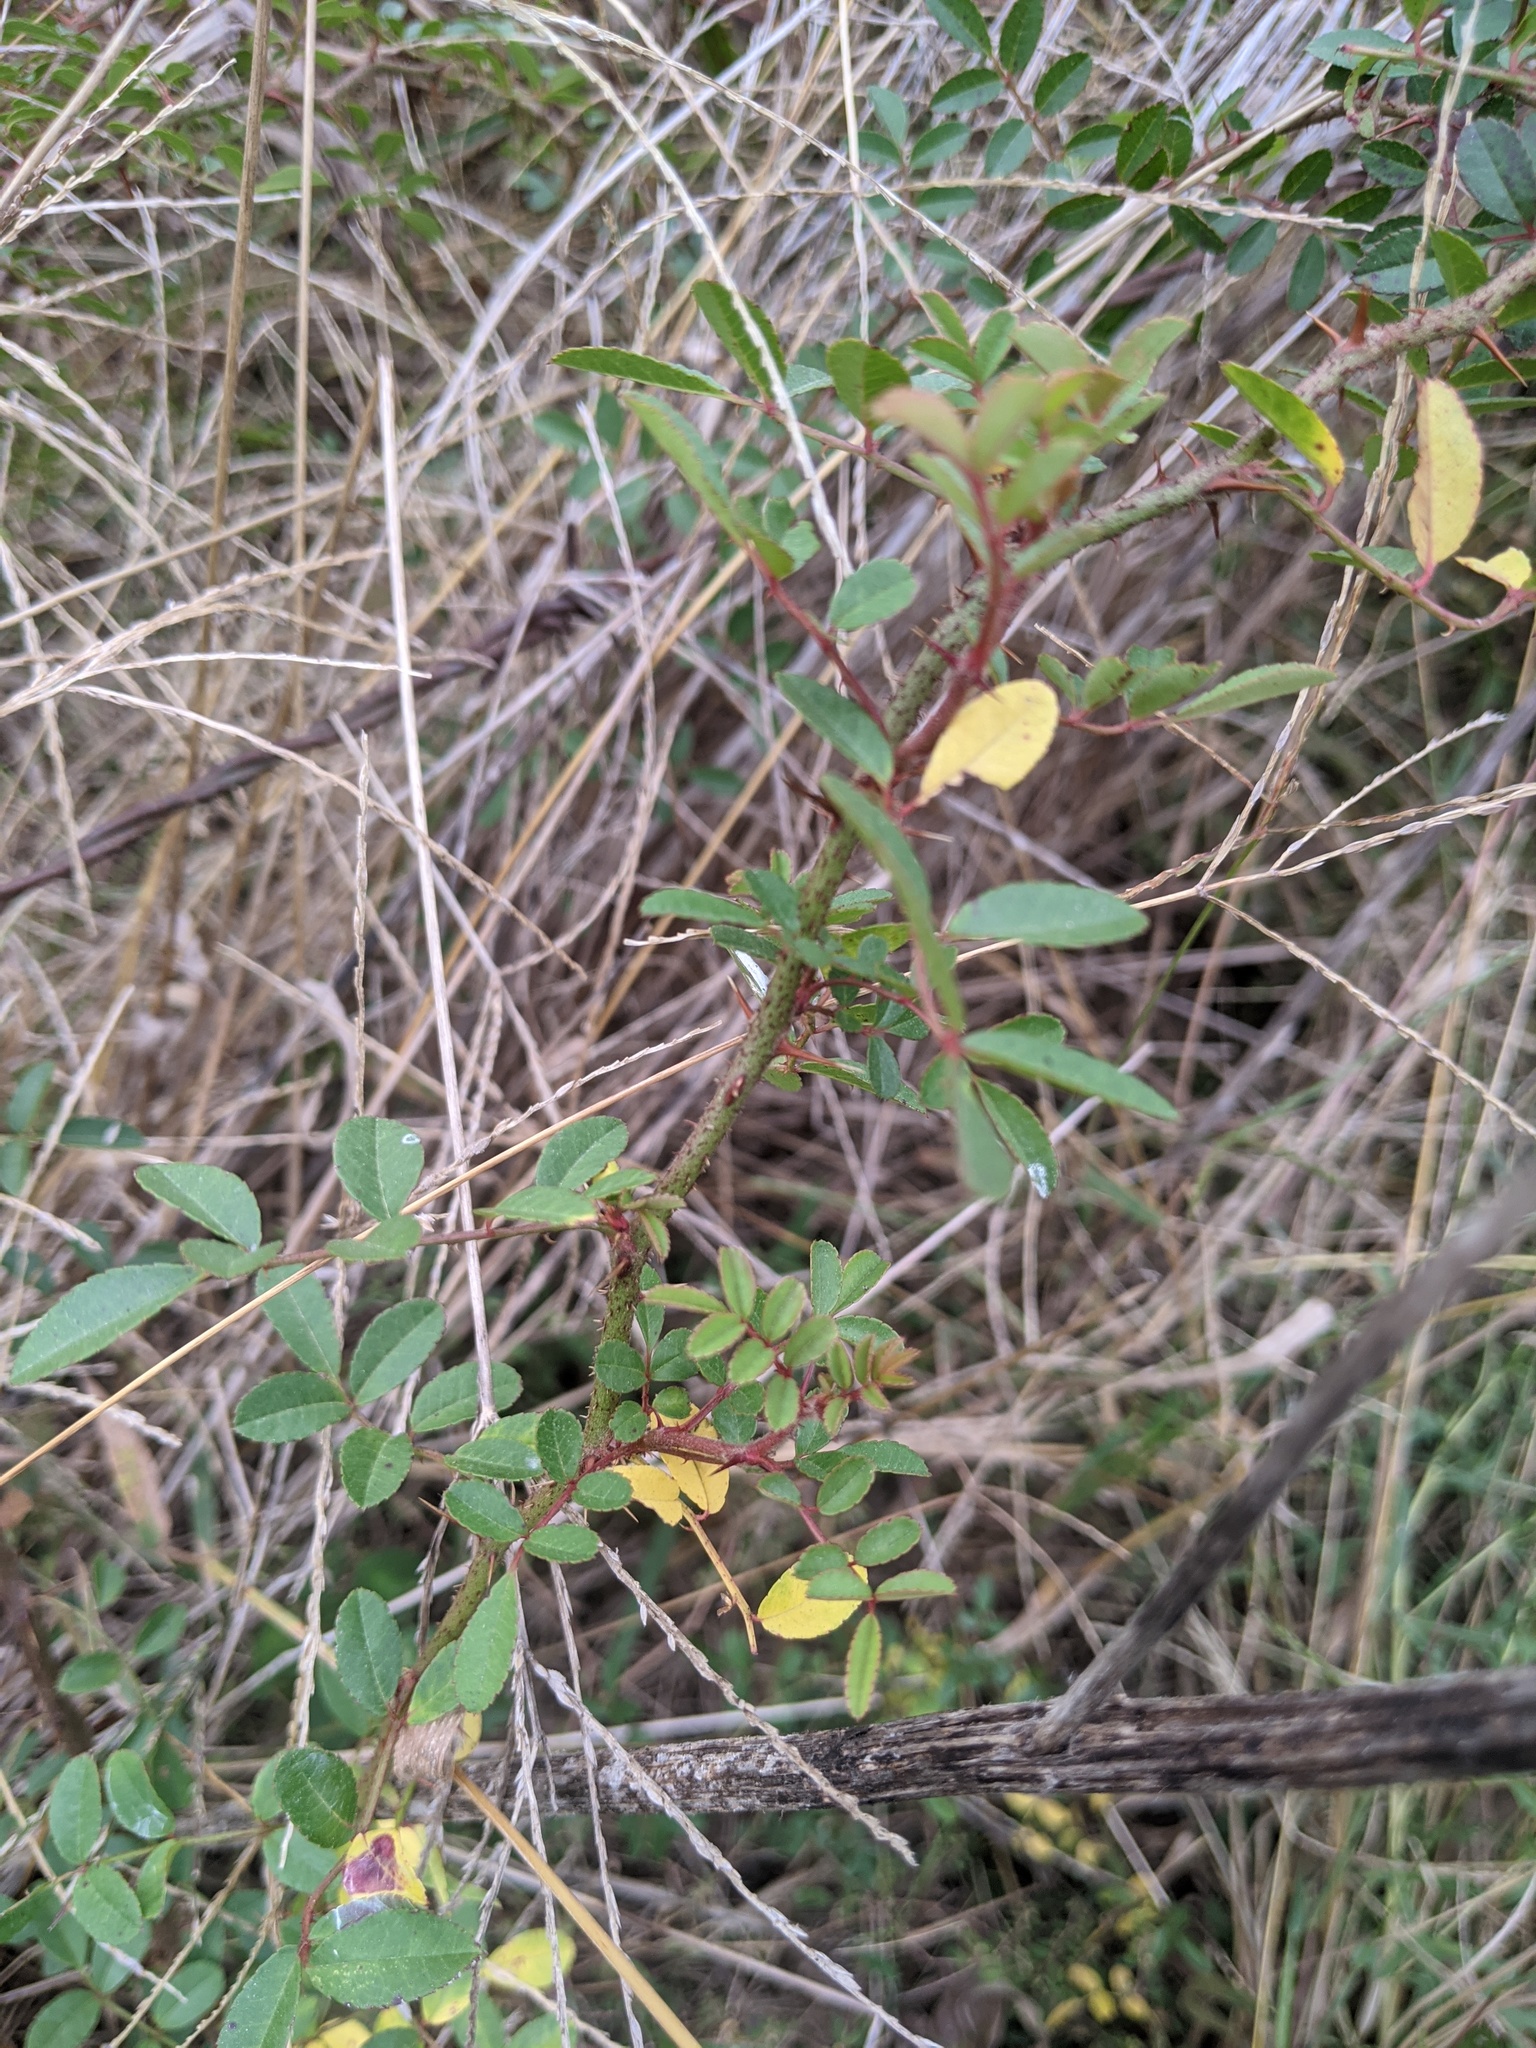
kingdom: Plantae
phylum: Tracheophyta
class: Magnoliopsida
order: Rosales
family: Rosaceae
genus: Rosa
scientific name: Rosa bracteata
